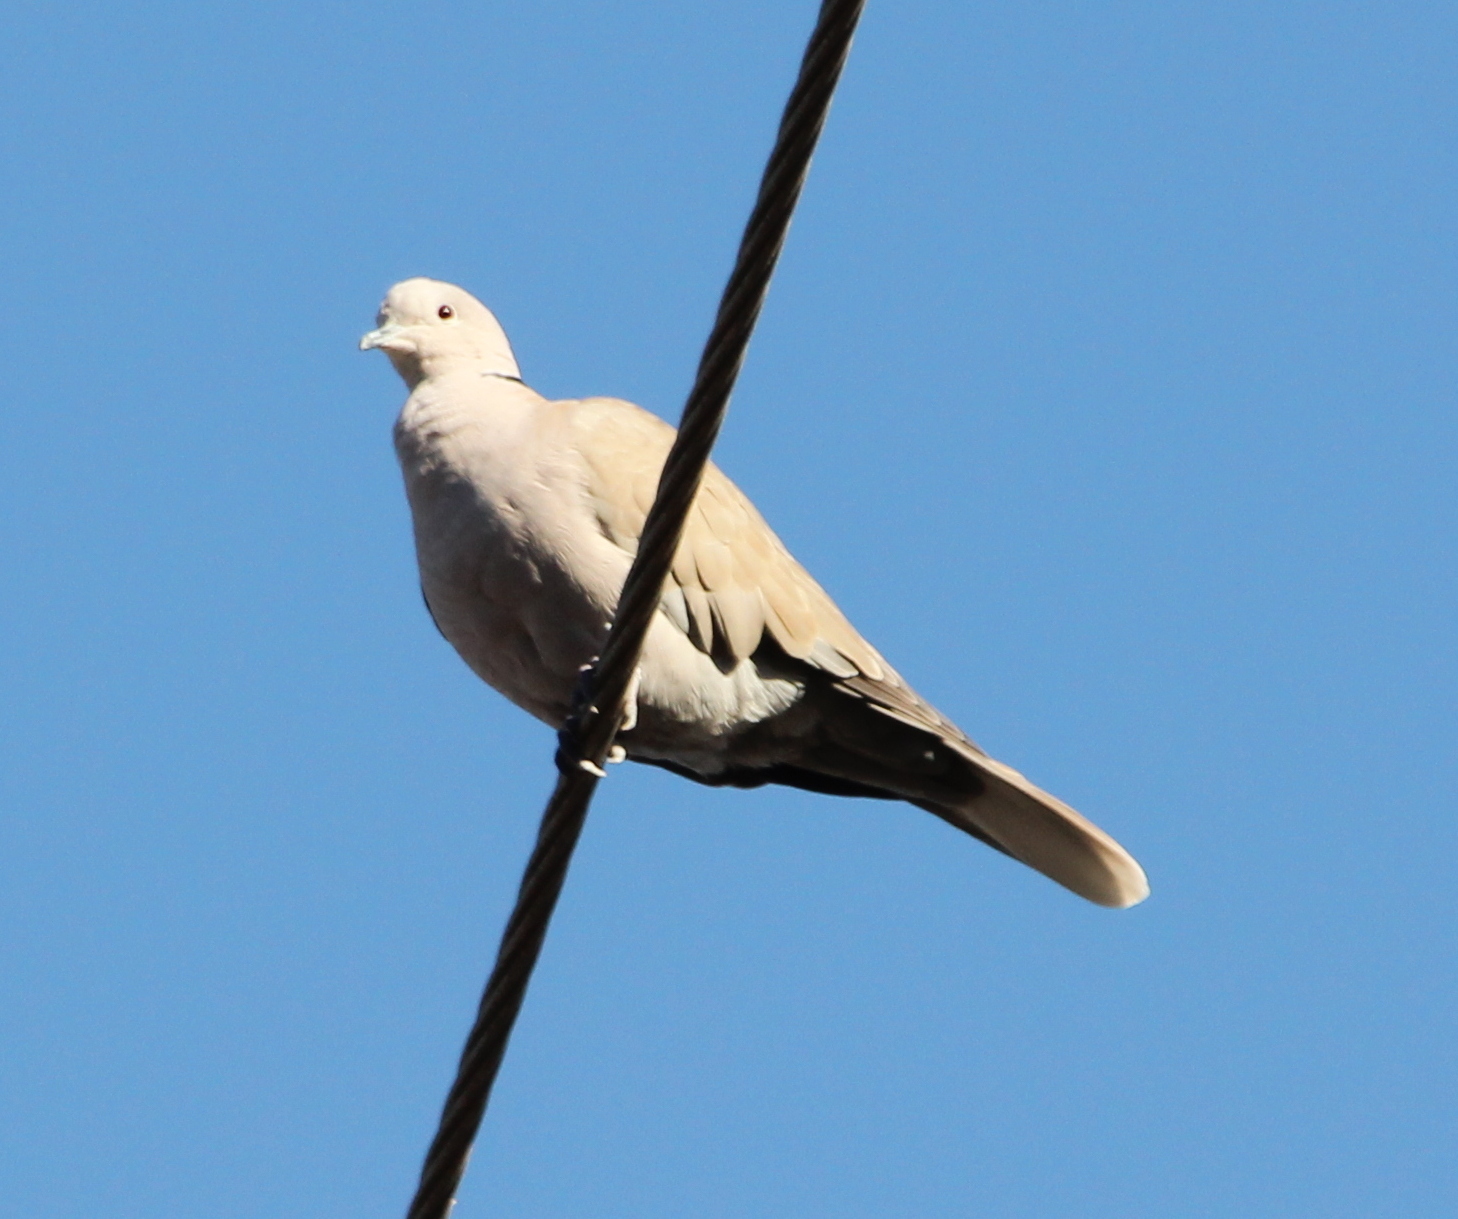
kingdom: Animalia
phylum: Chordata
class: Aves
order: Columbiformes
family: Columbidae
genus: Streptopelia
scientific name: Streptopelia decaocto
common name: Eurasian collared dove
